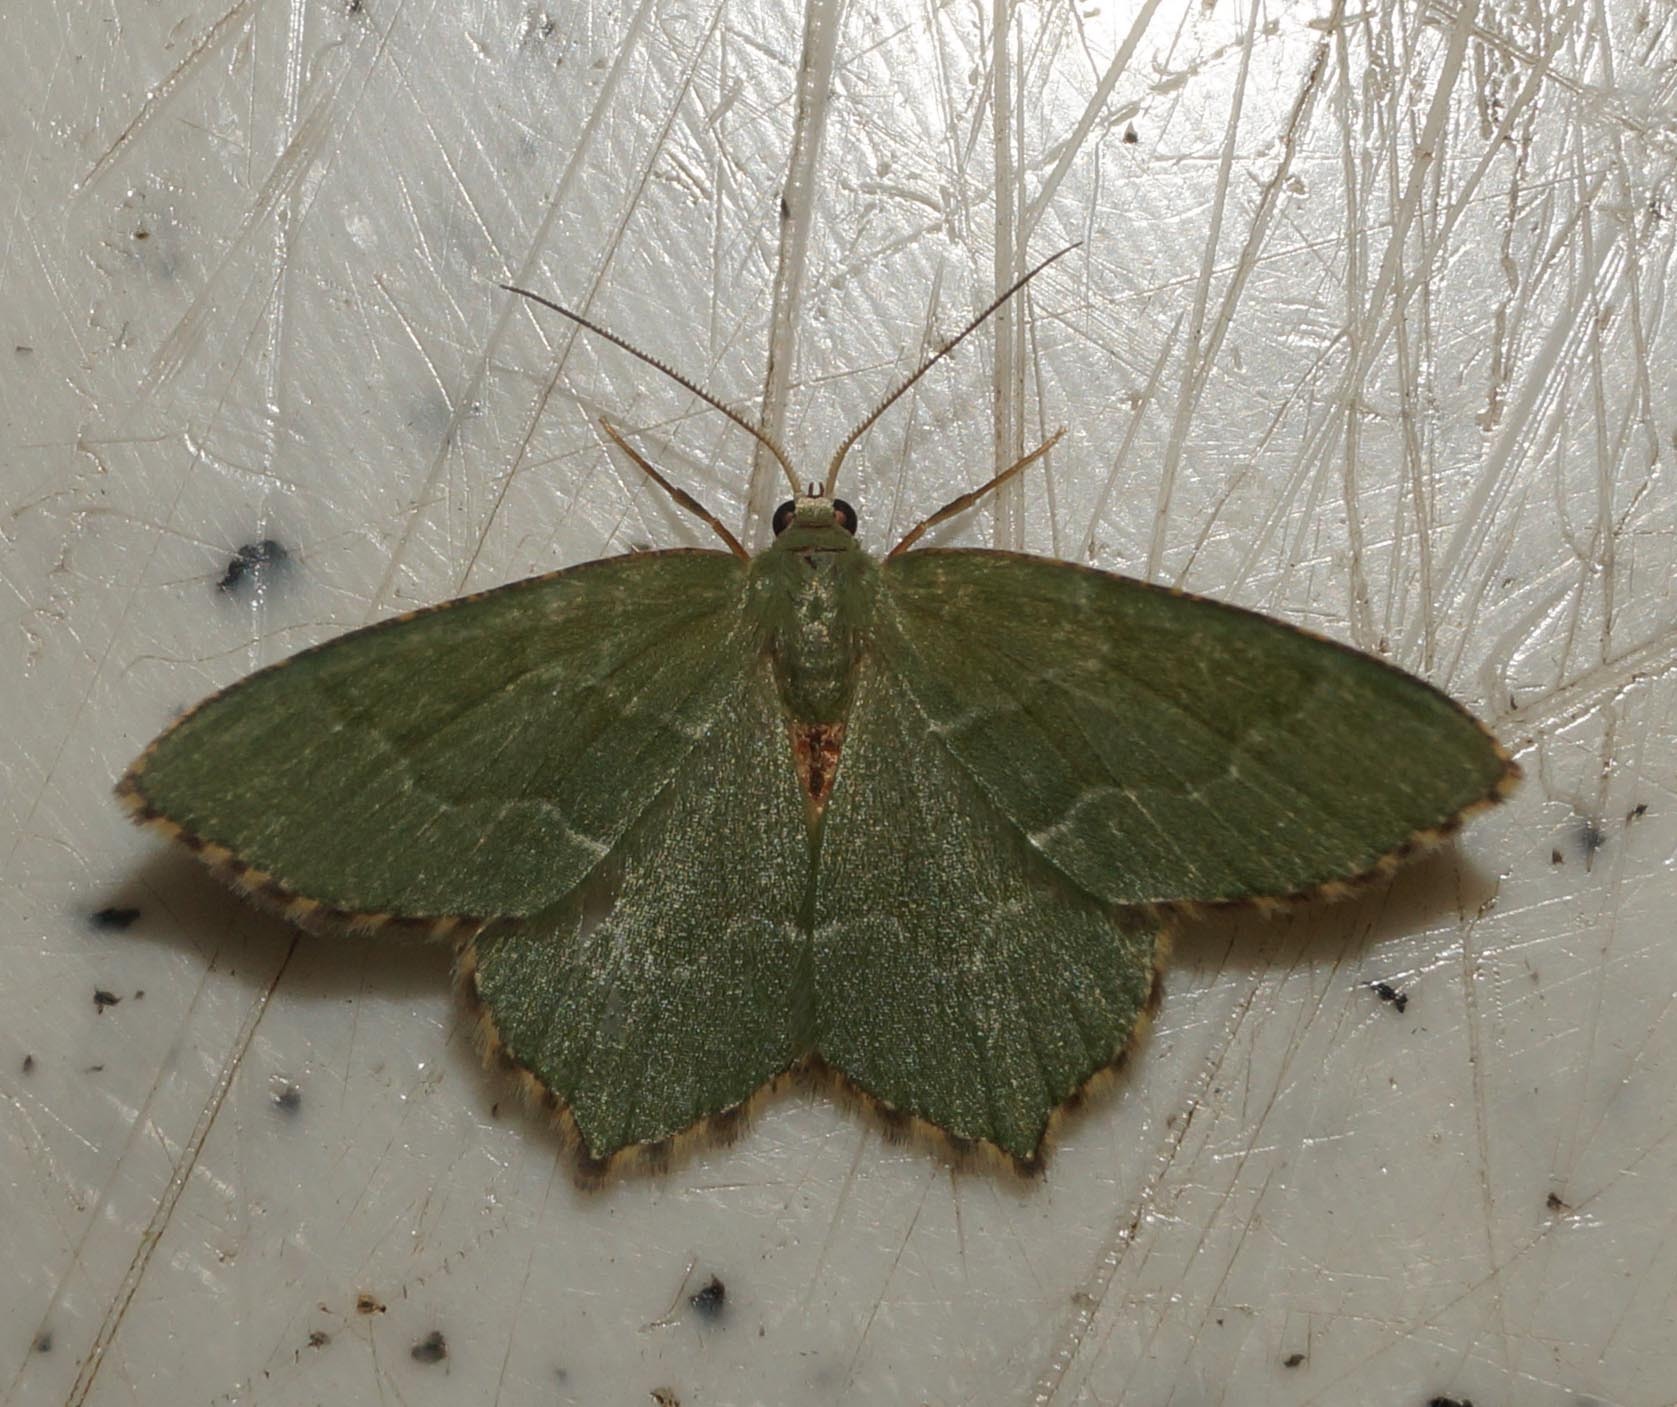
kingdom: Animalia
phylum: Arthropoda
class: Insecta
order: Lepidoptera
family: Geometridae
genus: Hemithea
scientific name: Hemithea aestivaria
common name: Common emerald
